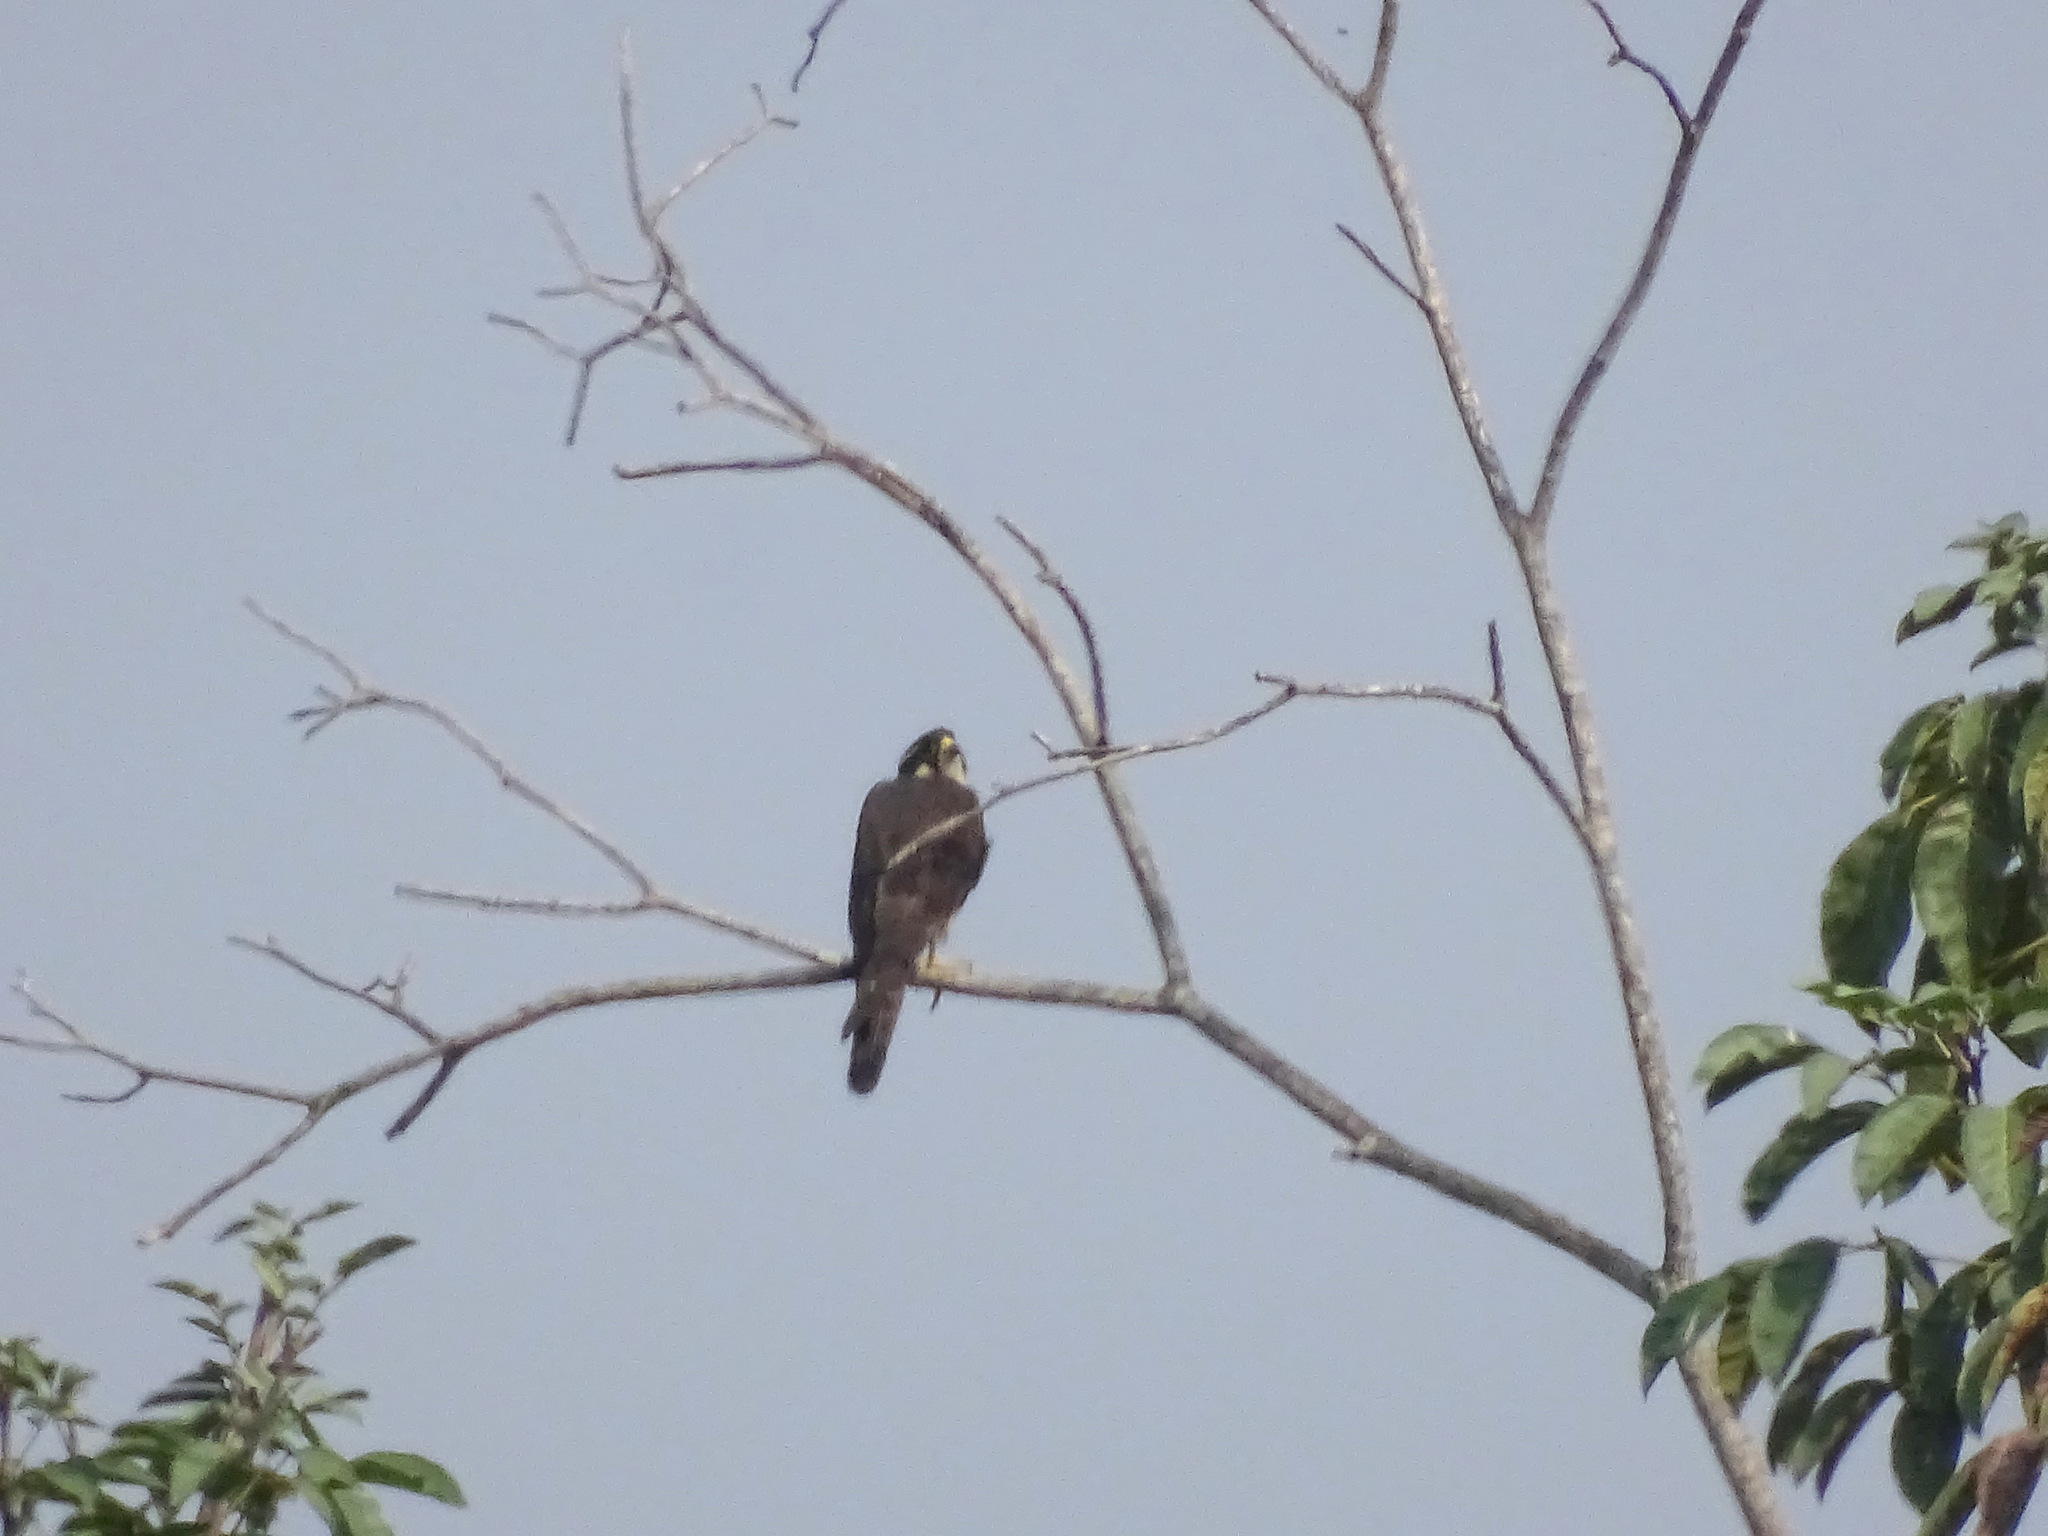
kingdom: Animalia
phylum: Chordata
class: Aves
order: Falconiformes
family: Falconidae
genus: Falco
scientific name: Falco femoralis
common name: Aplomado falcon
